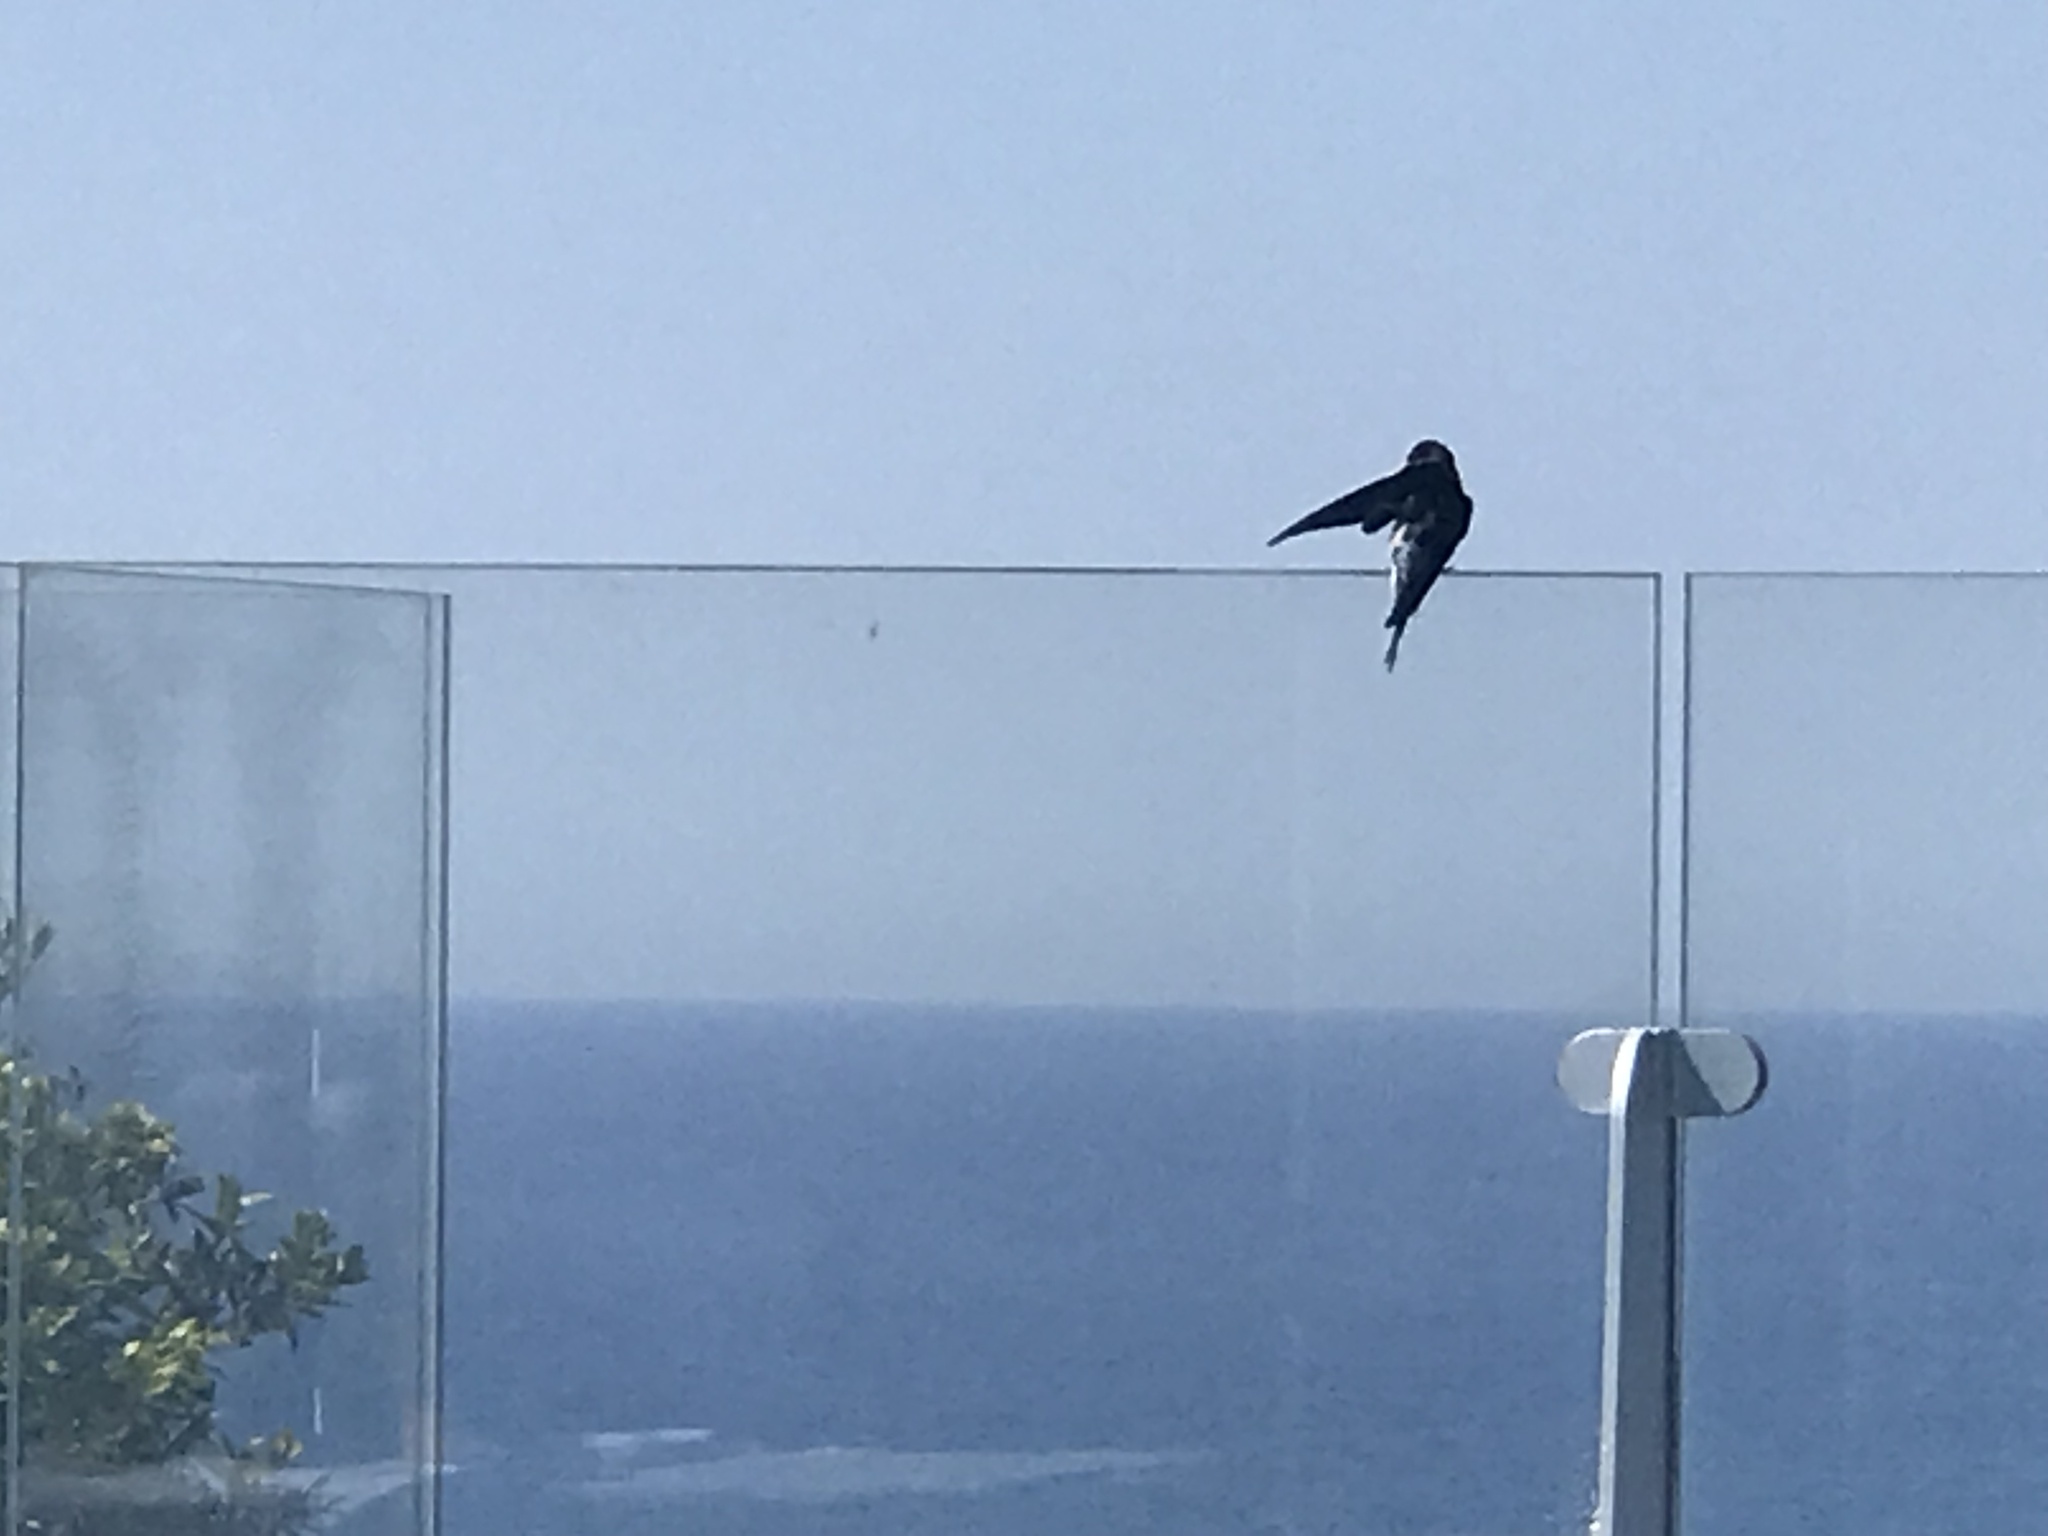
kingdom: Animalia
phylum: Chordata
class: Aves
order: Passeriformes
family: Hirundinidae
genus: Hirundo
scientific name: Hirundo rustica
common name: Barn swallow
